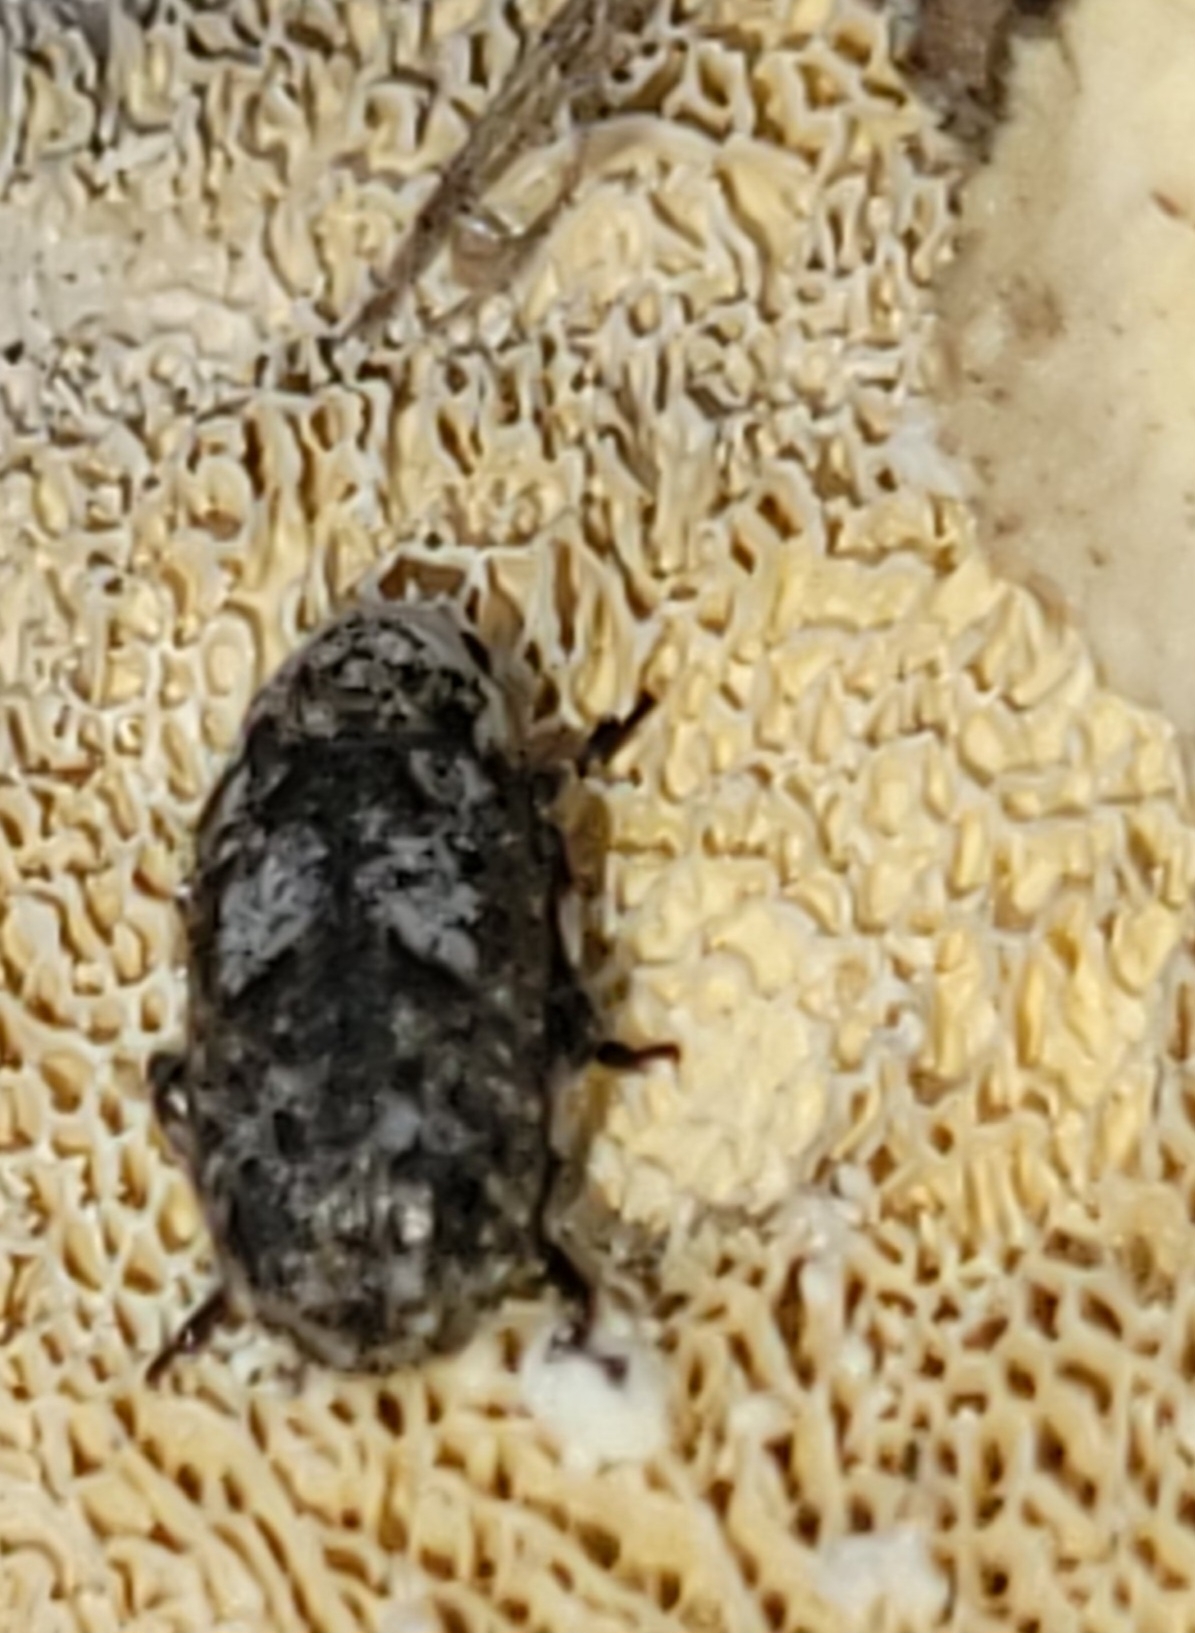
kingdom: Animalia
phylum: Arthropoda
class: Insecta
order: Coleoptera
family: Anthribidae
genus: Euparius
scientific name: Euparius marmoreus
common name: Marbled fungus weevil
